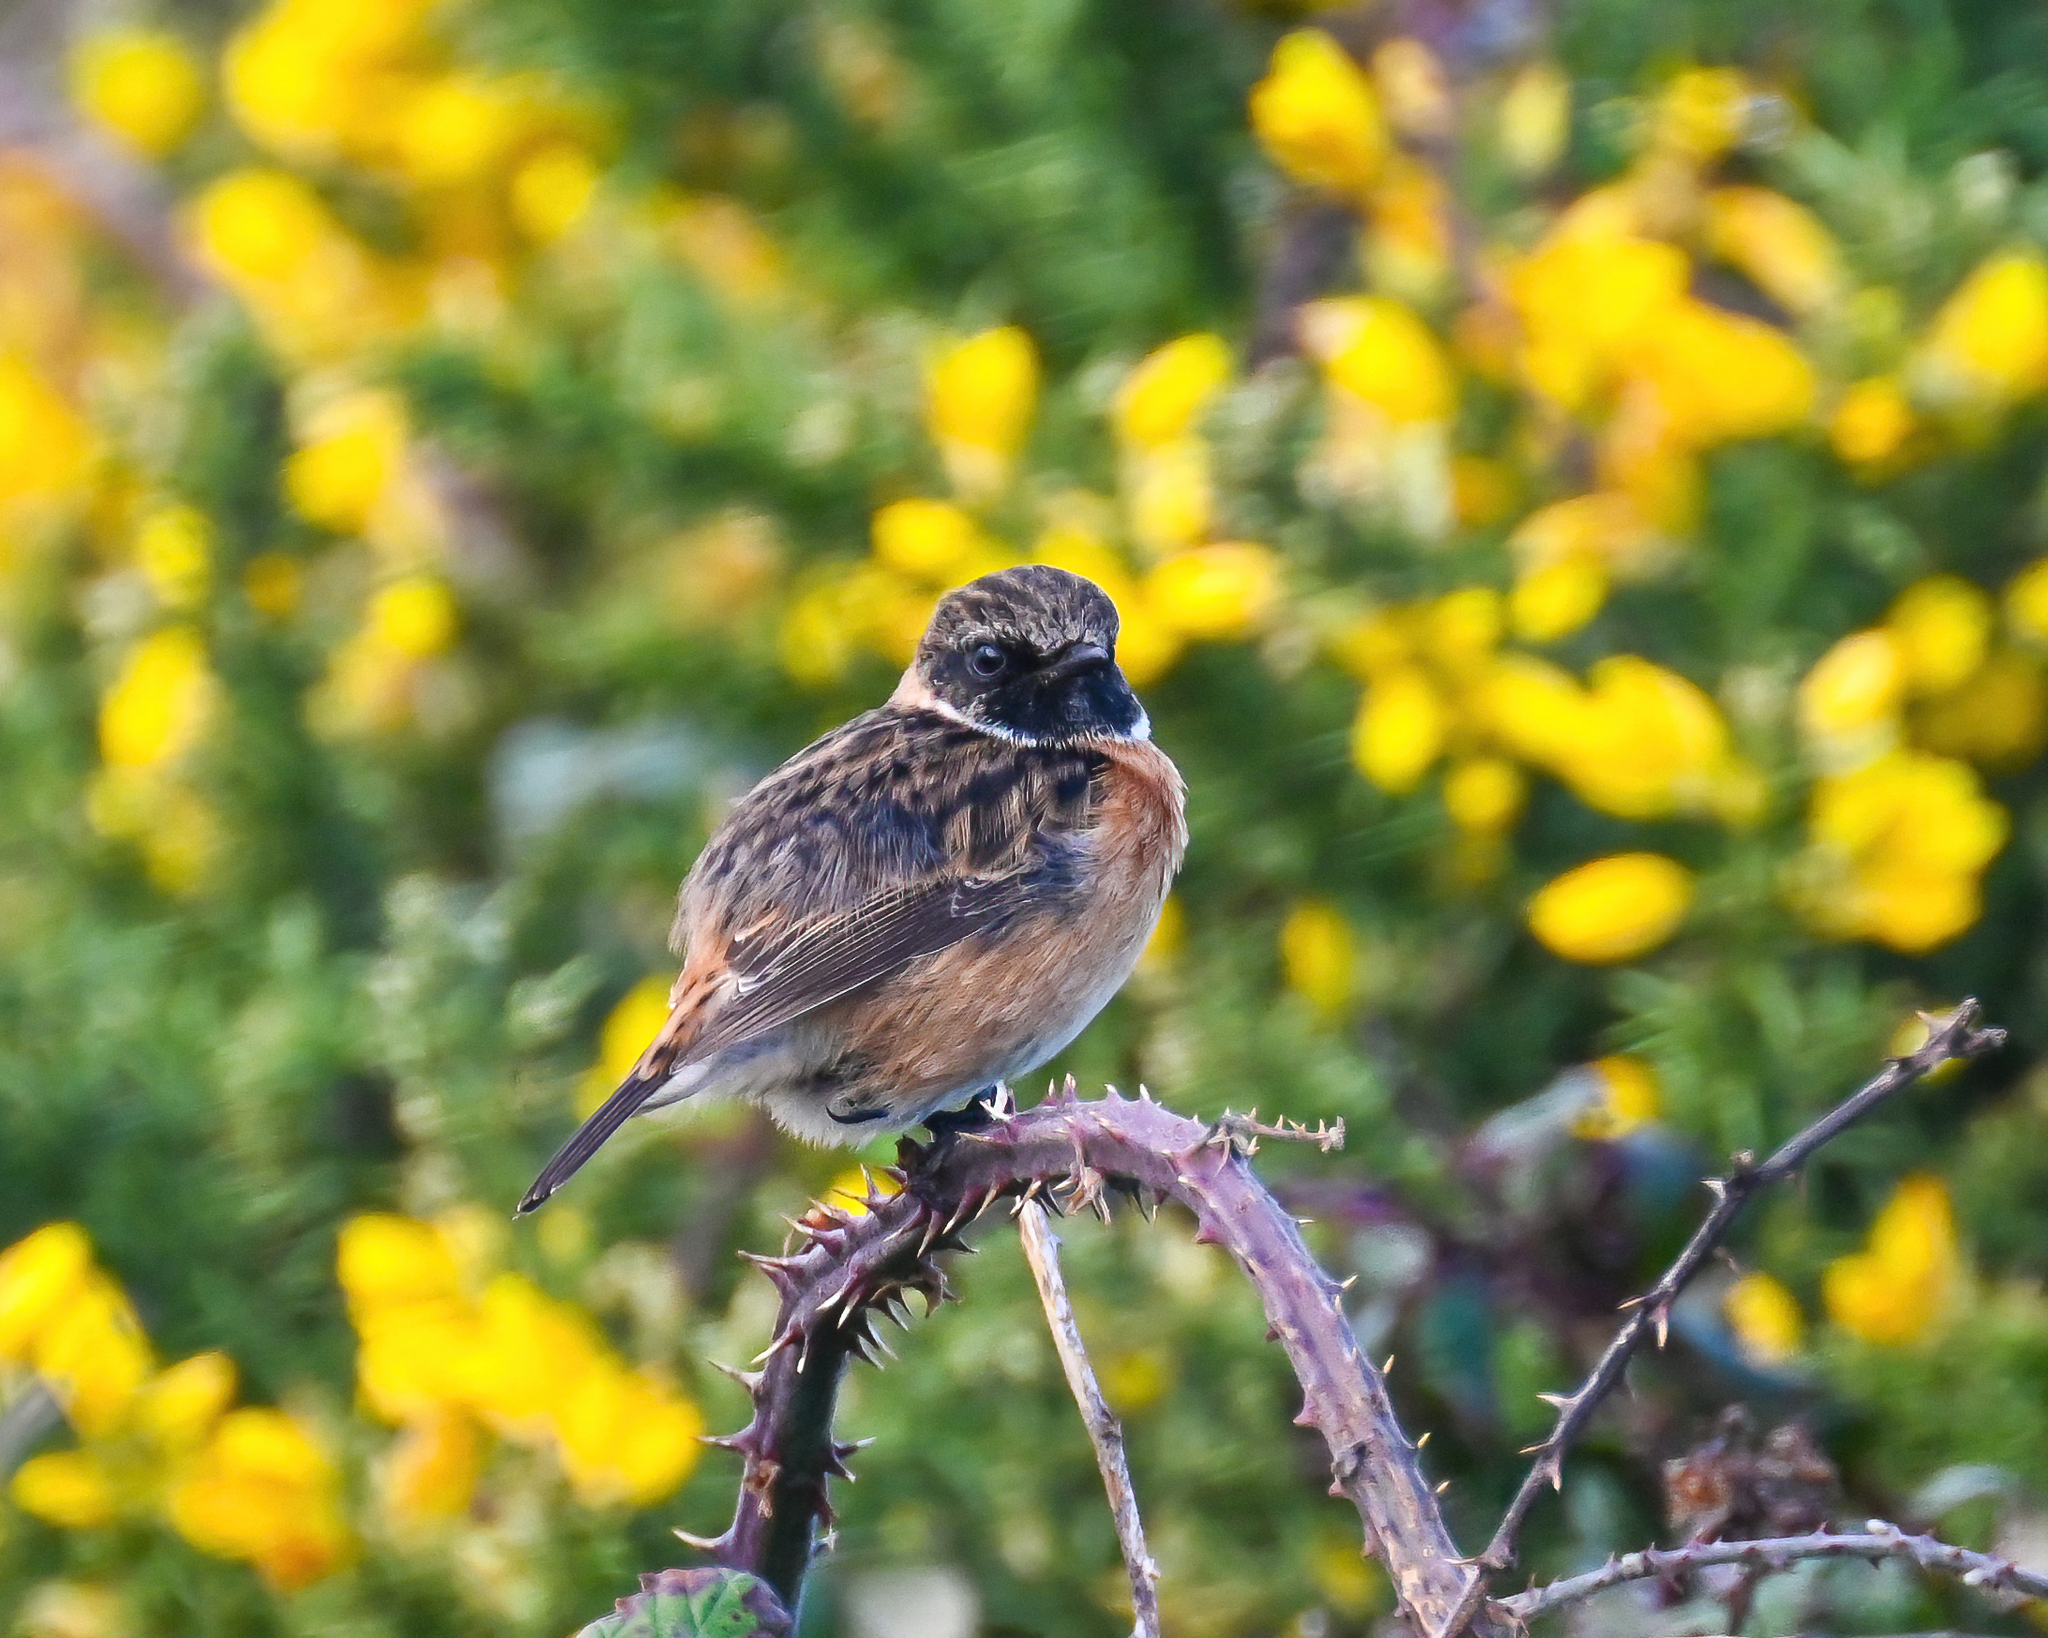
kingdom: Animalia
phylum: Chordata
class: Aves
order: Passeriformes
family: Muscicapidae
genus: Saxicola
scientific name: Saxicola rubicola
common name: European stonechat
